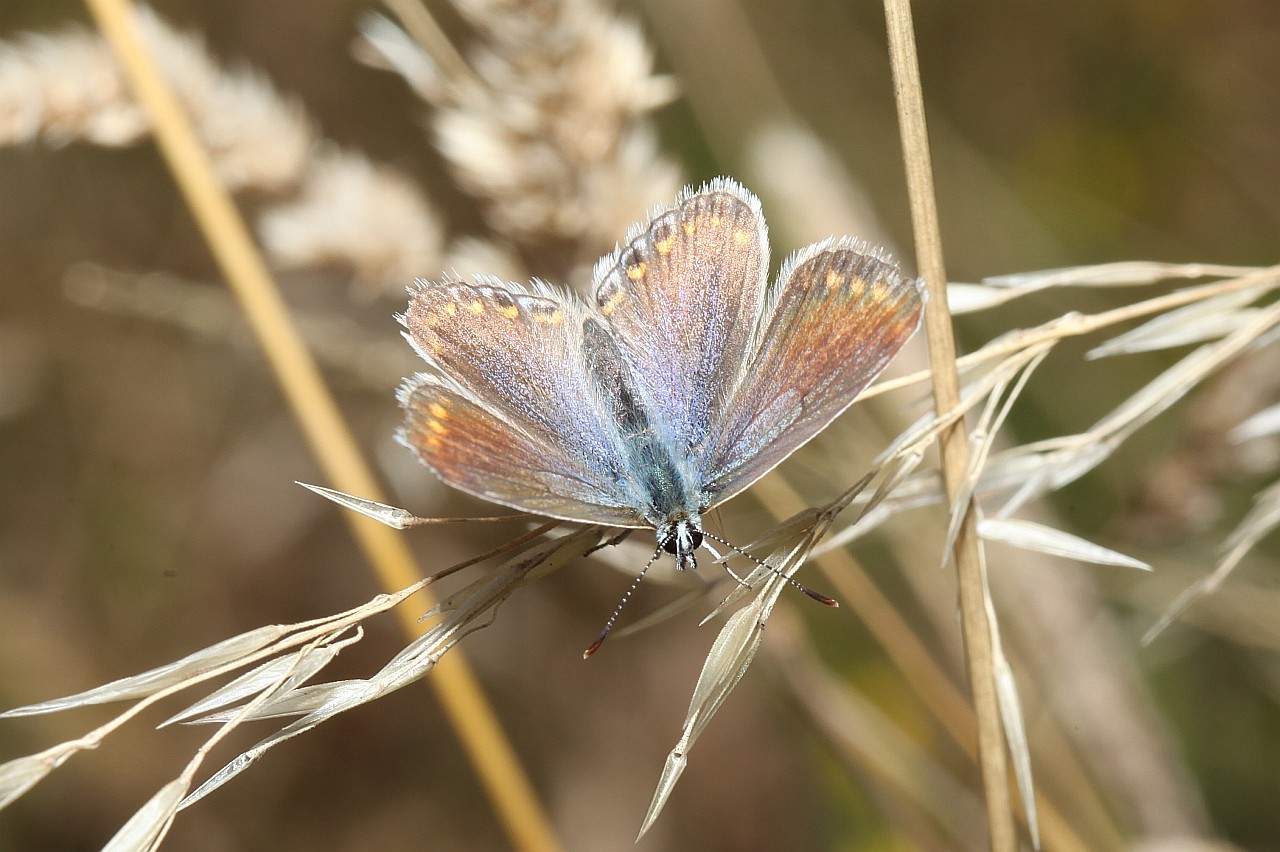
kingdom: Animalia
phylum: Arthropoda
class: Insecta
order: Lepidoptera
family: Lycaenidae
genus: Polyommatus
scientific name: Polyommatus icarus
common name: Common blue
